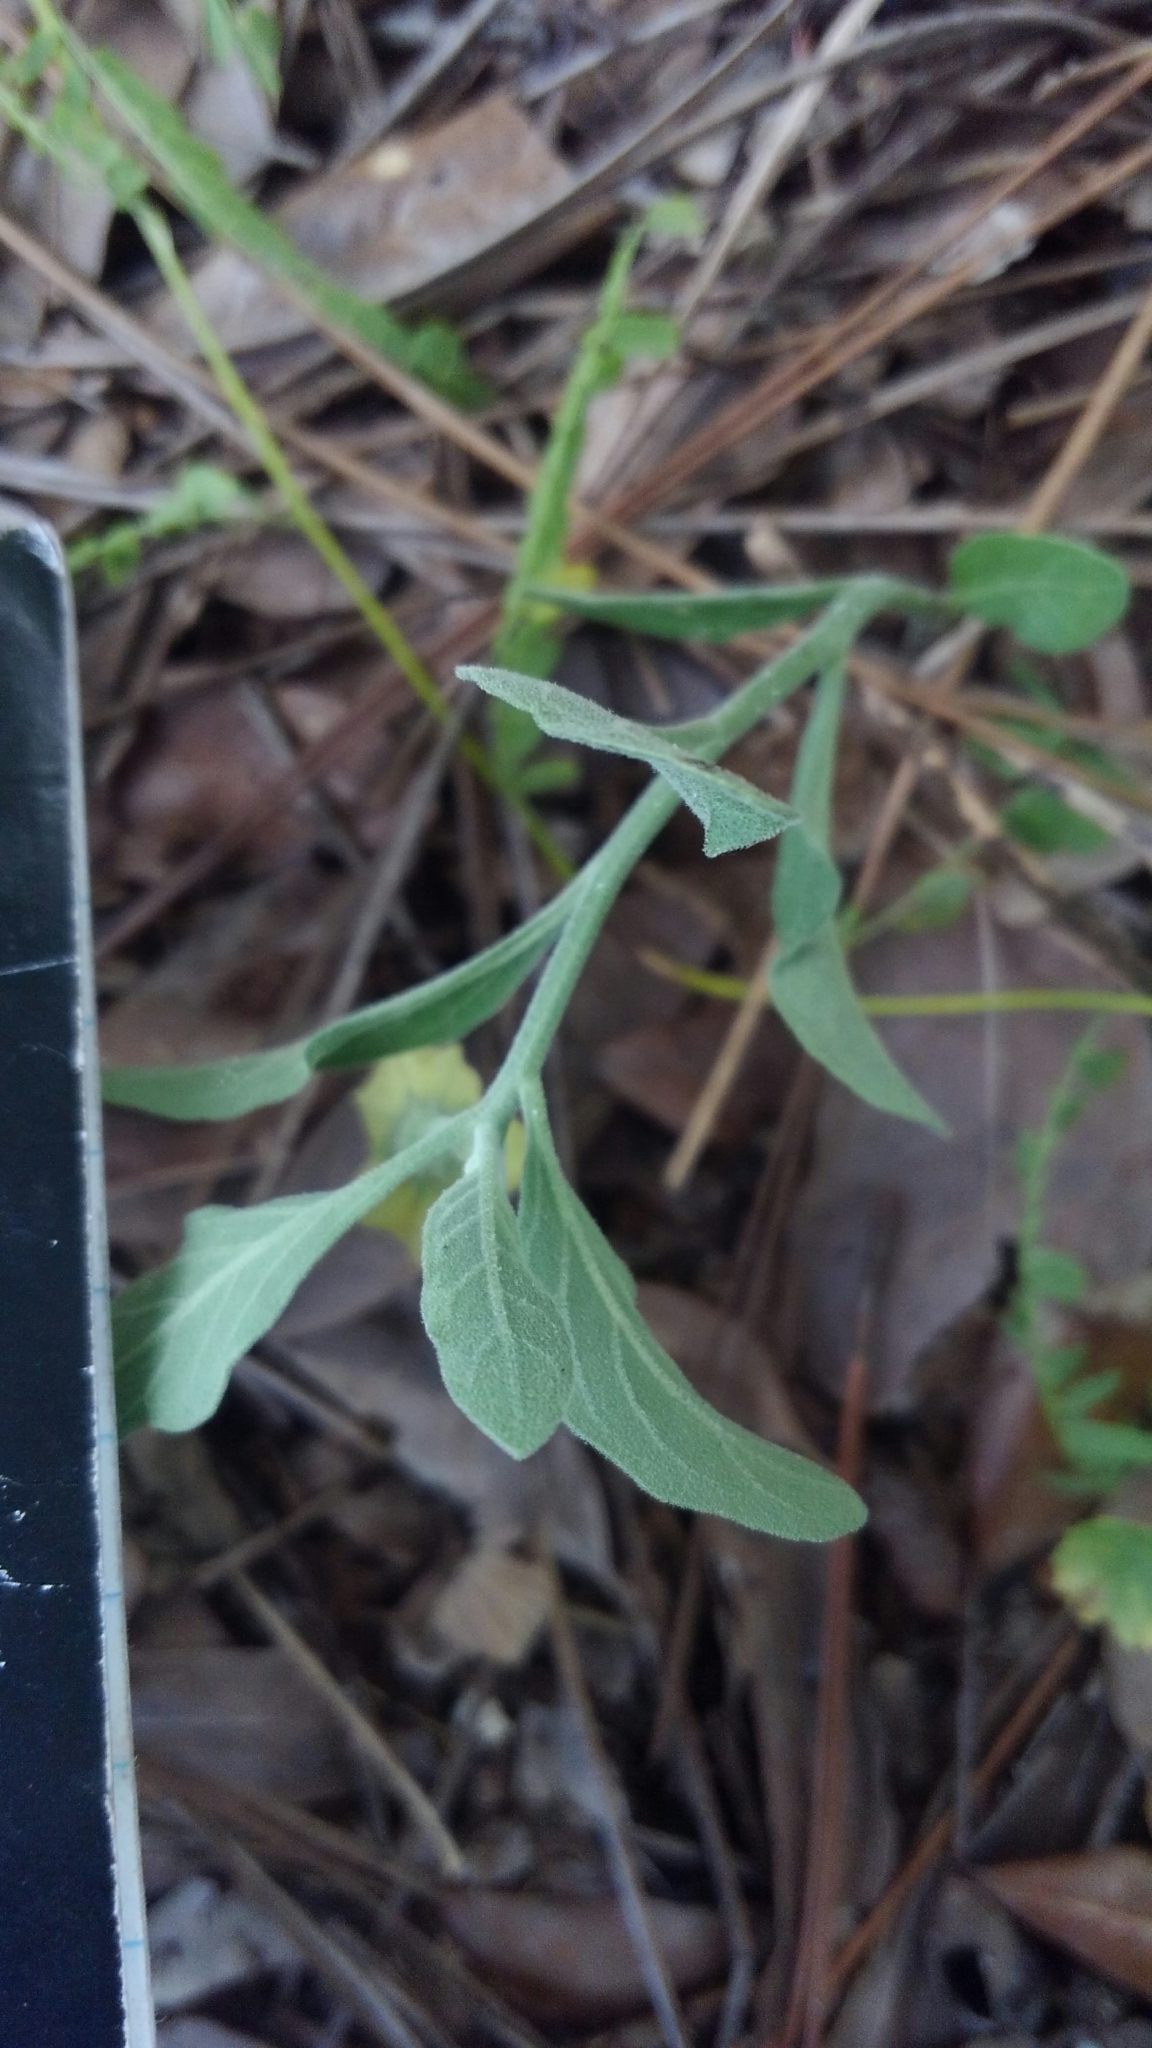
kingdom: Plantae
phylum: Tracheophyta
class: Magnoliopsida
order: Solanales
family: Solanaceae
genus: Physalis
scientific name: Physalis walteri
